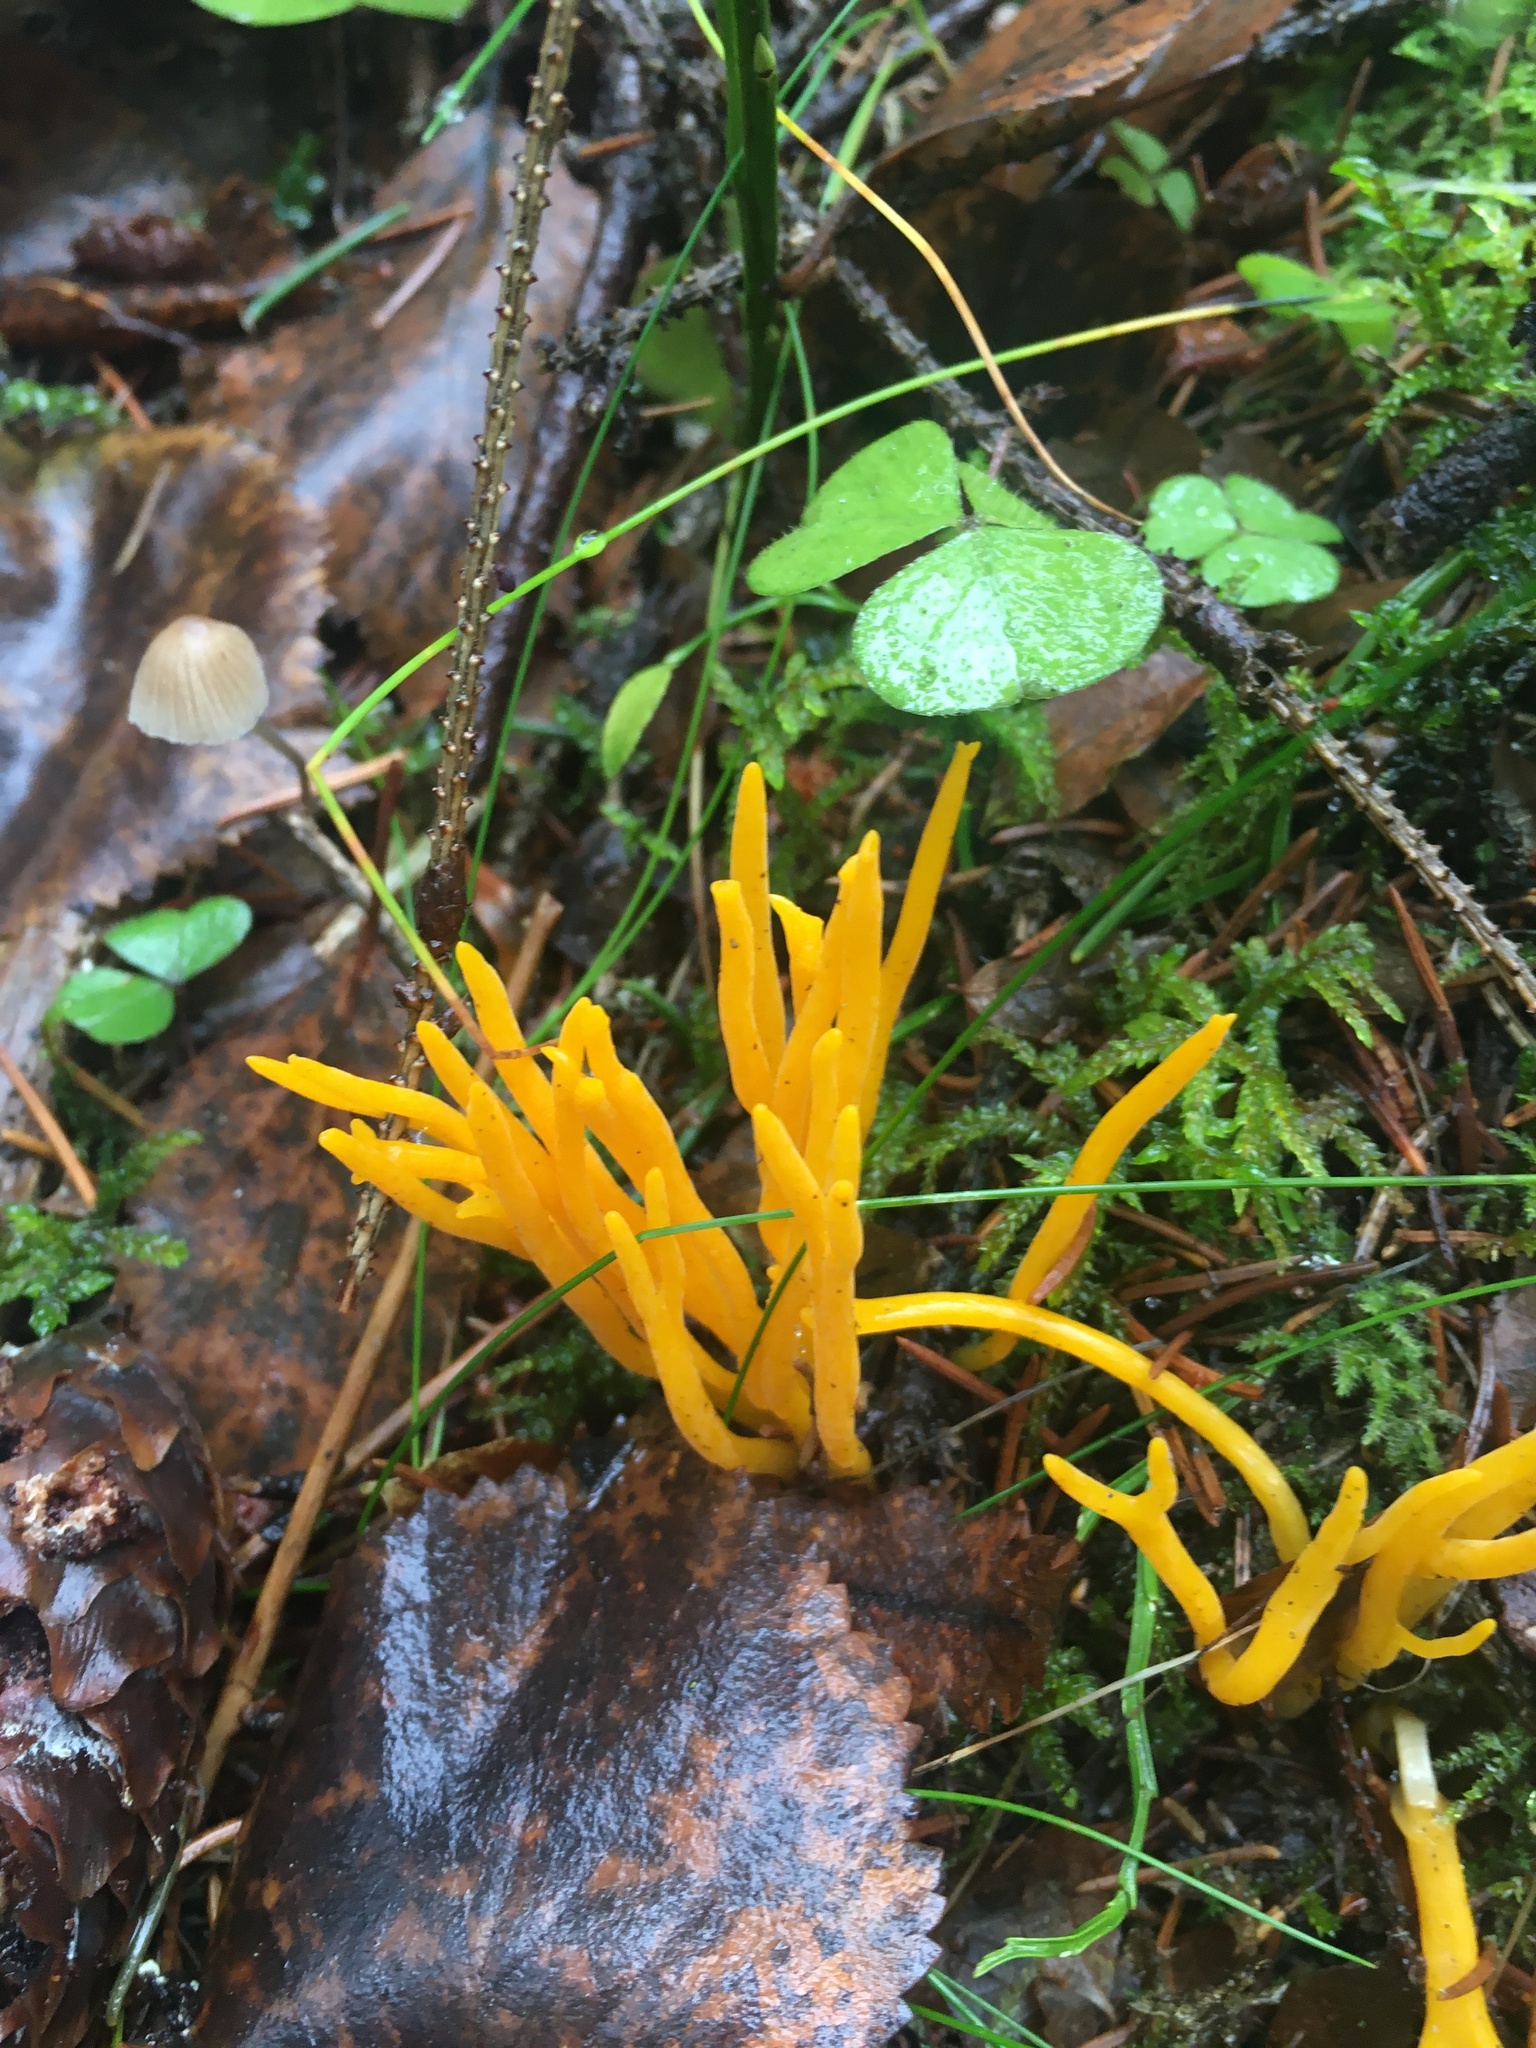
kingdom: Fungi
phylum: Basidiomycota
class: Dacrymycetes
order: Dacrymycetales
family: Dacrymycetaceae
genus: Calocera
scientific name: Calocera viscosa
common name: Yellow stagshorn
